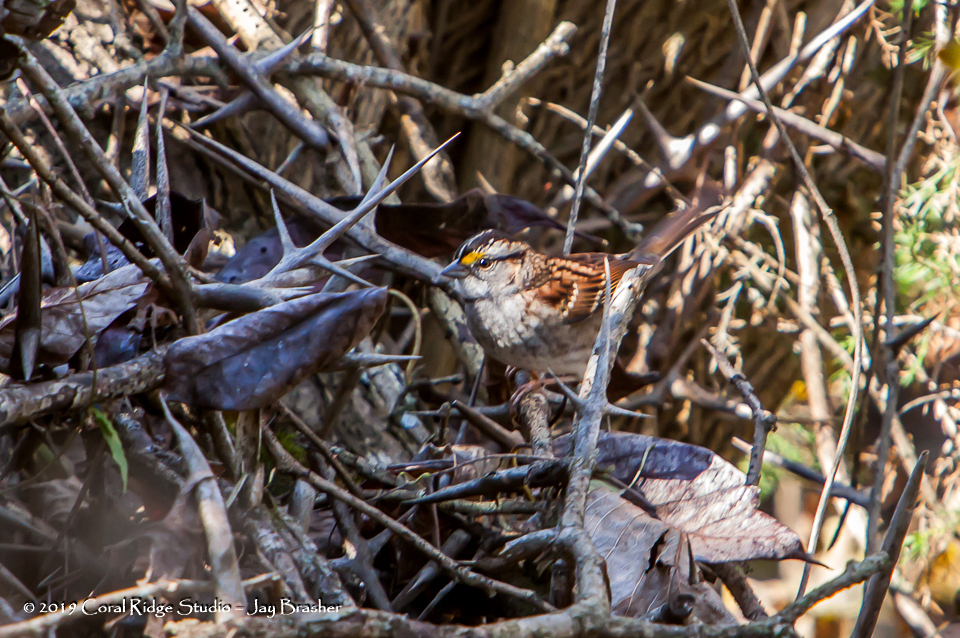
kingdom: Animalia
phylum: Chordata
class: Aves
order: Passeriformes
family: Passerellidae
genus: Zonotrichia
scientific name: Zonotrichia albicollis
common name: White-throated sparrow
